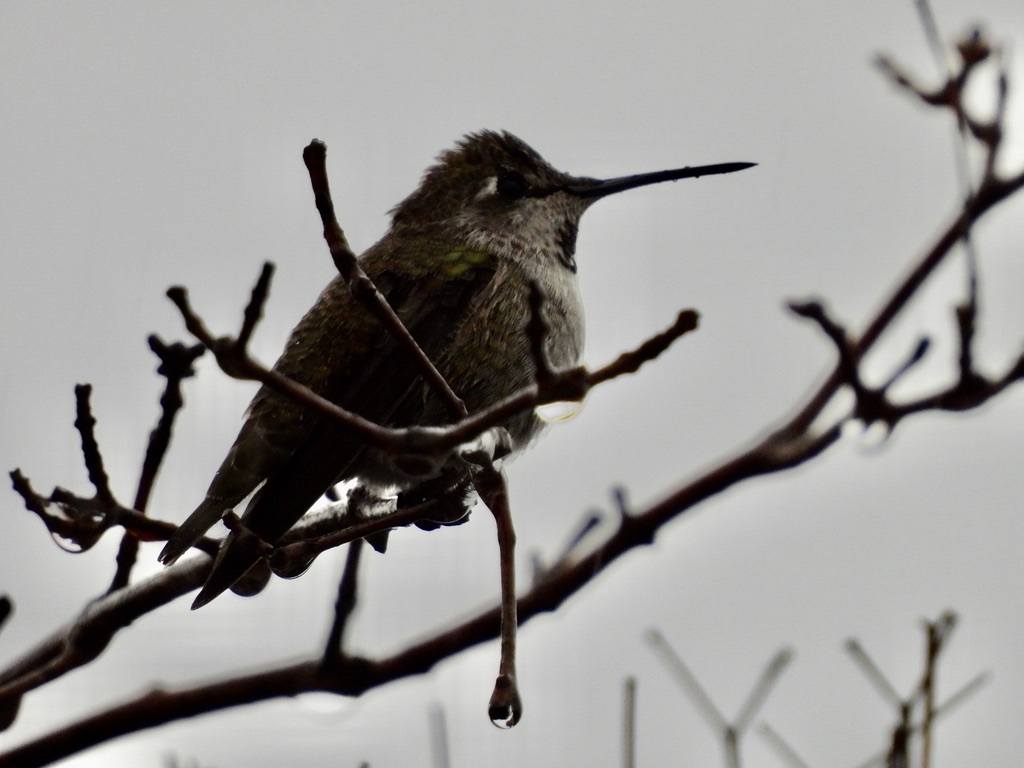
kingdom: Animalia
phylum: Chordata
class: Aves
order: Apodiformes
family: Trochilidae
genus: Calypte
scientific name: Calypte anna
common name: Anna's hummingbird
